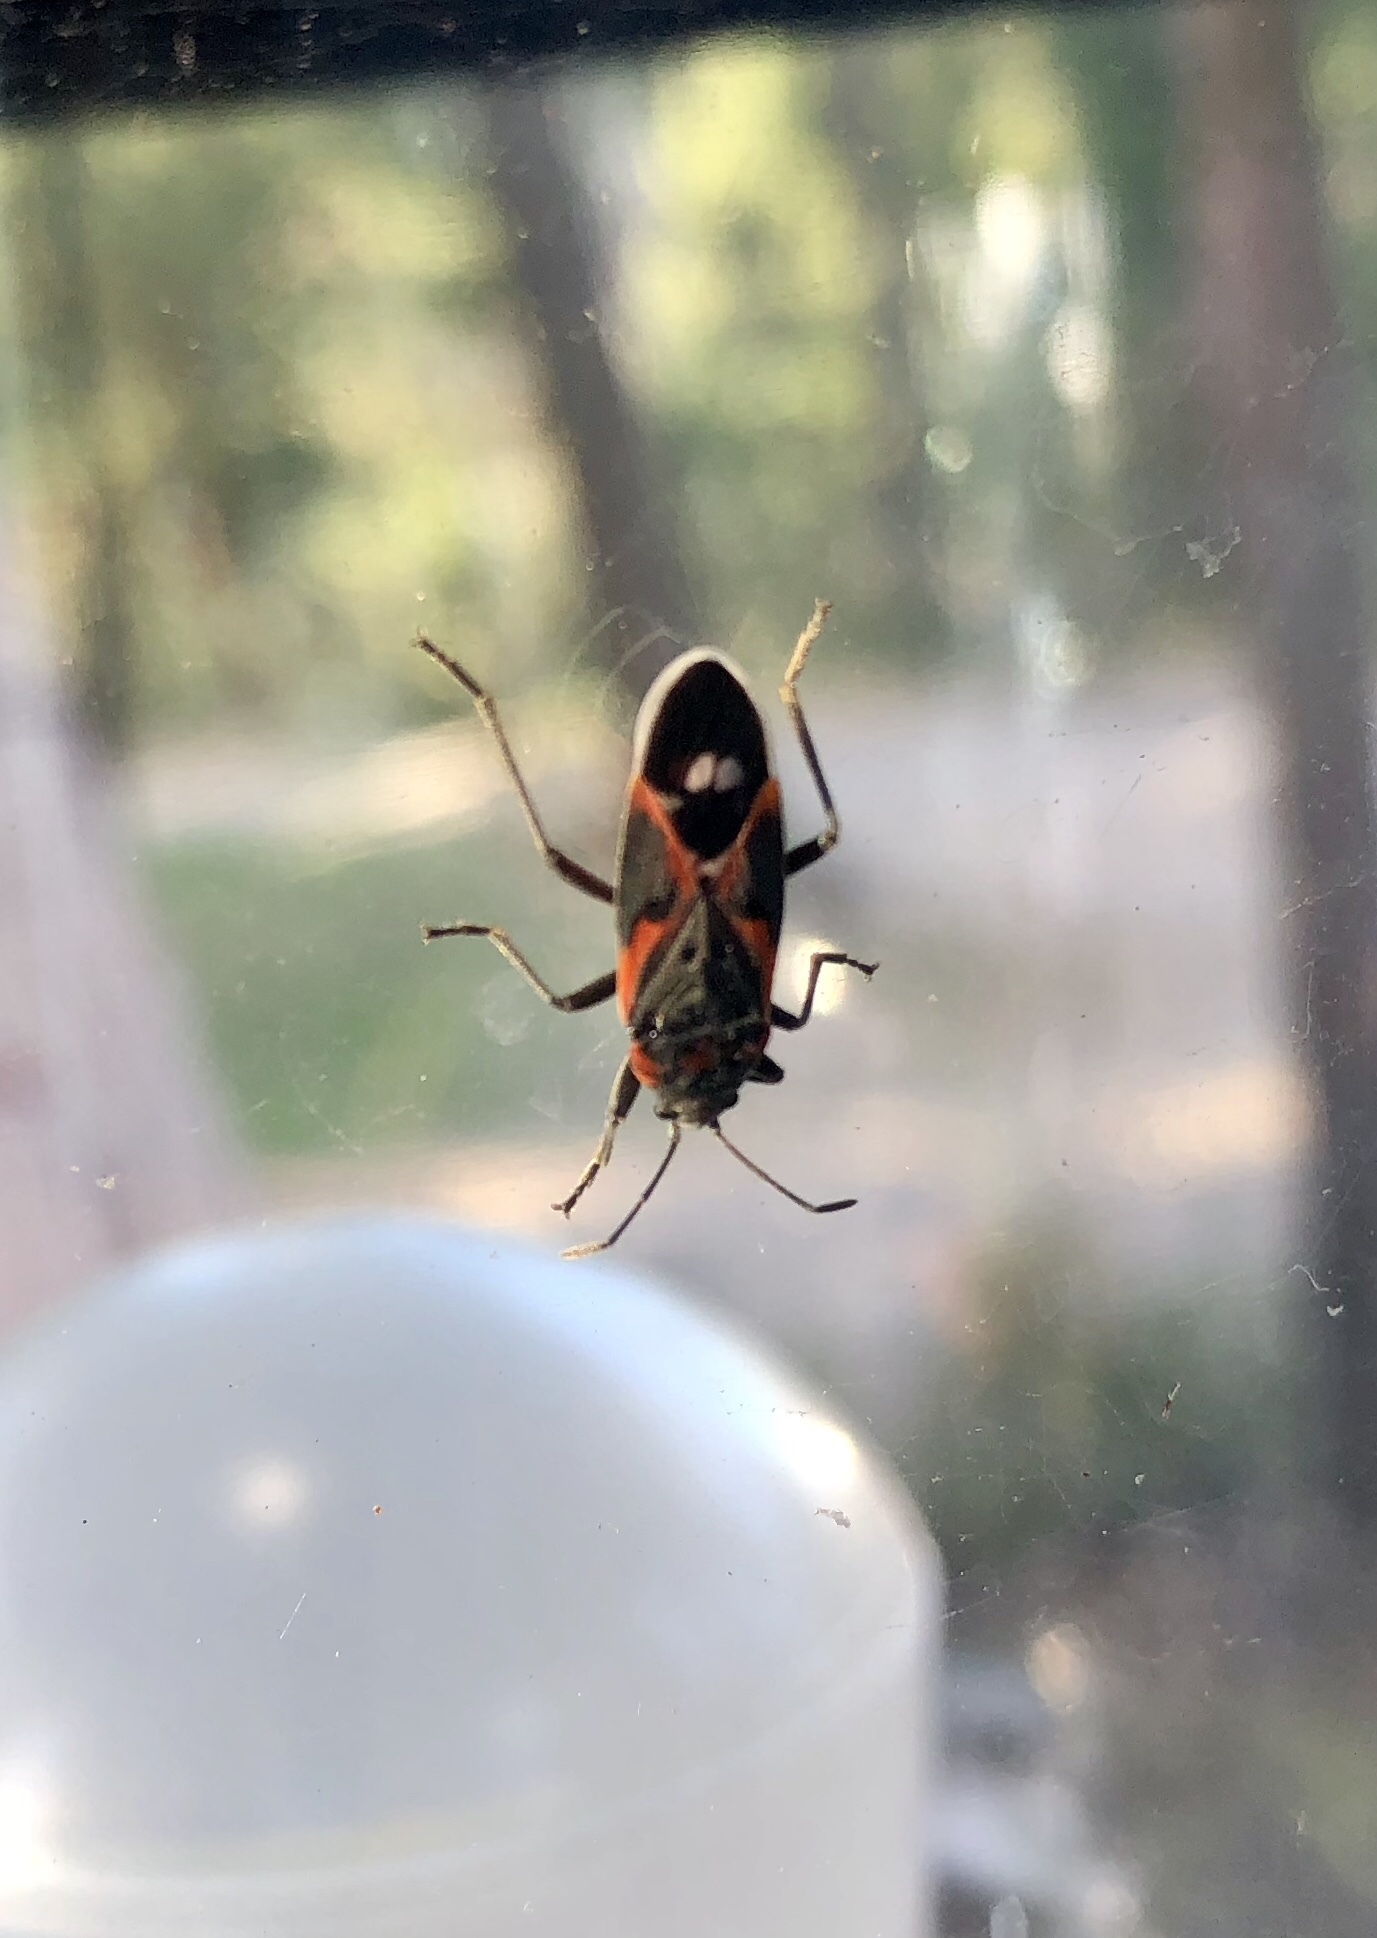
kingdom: Animalia
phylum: Arthropoda
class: Insecta
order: Hemiptera
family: Lygaeidae
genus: Lygaeus
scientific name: Lygaeus kalmii
